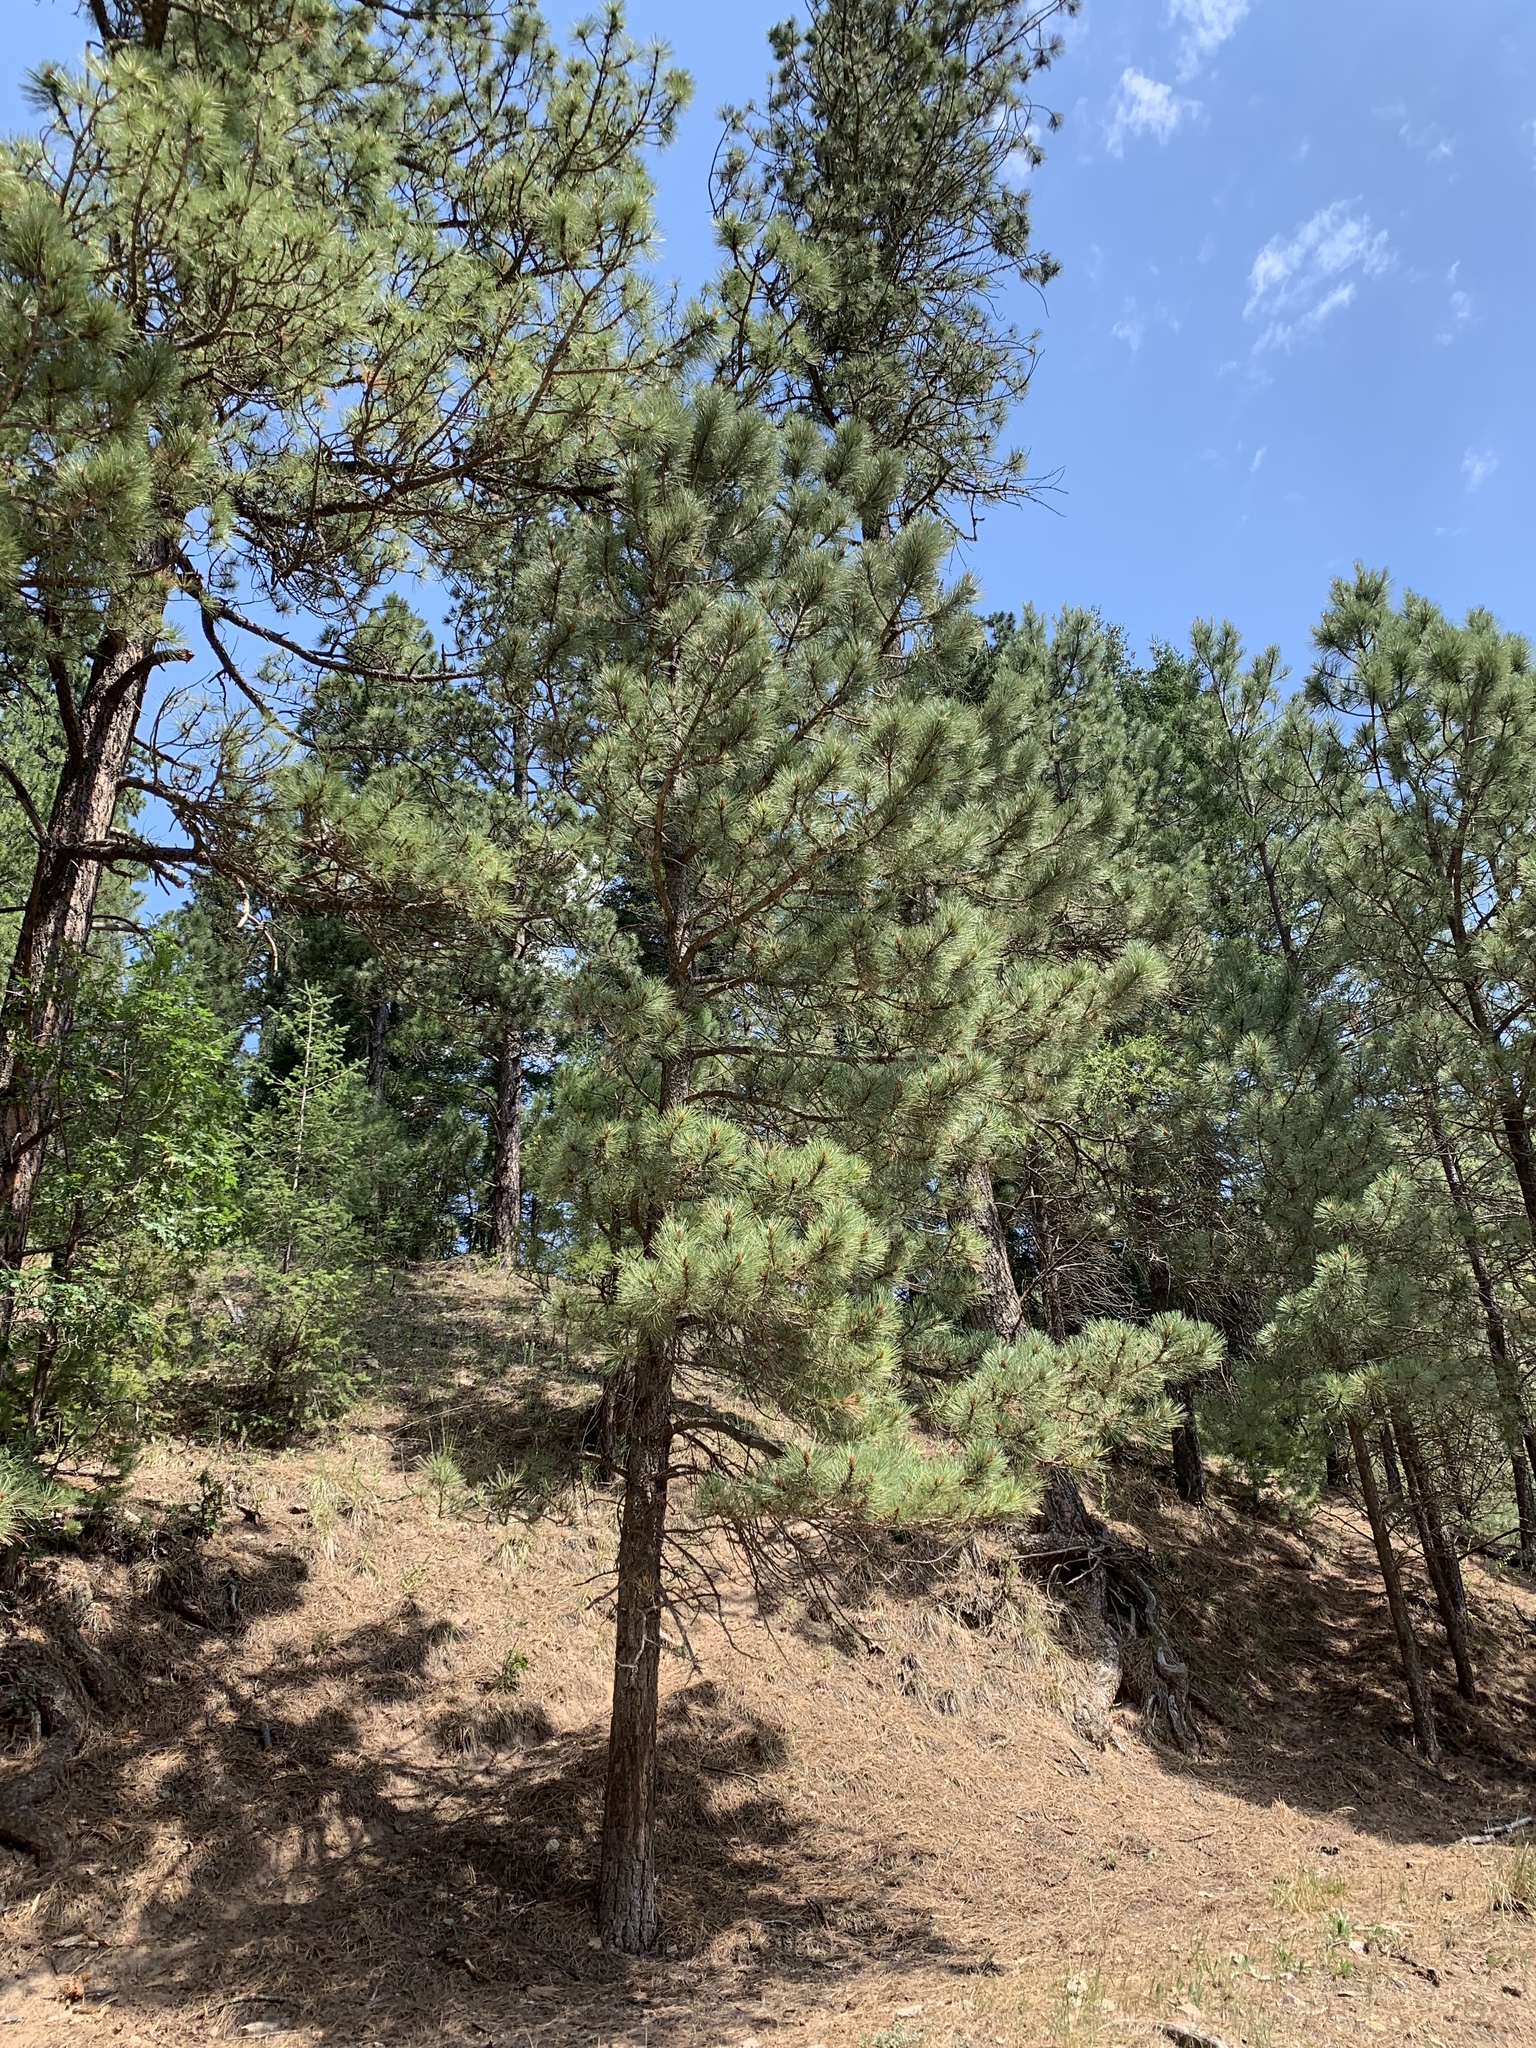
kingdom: Plantae
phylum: Tracheophyta
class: Pinopsida
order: Pinales
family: Pinaceae
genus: Pinus
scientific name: Pinus ponderosa
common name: Western yellow-pine
